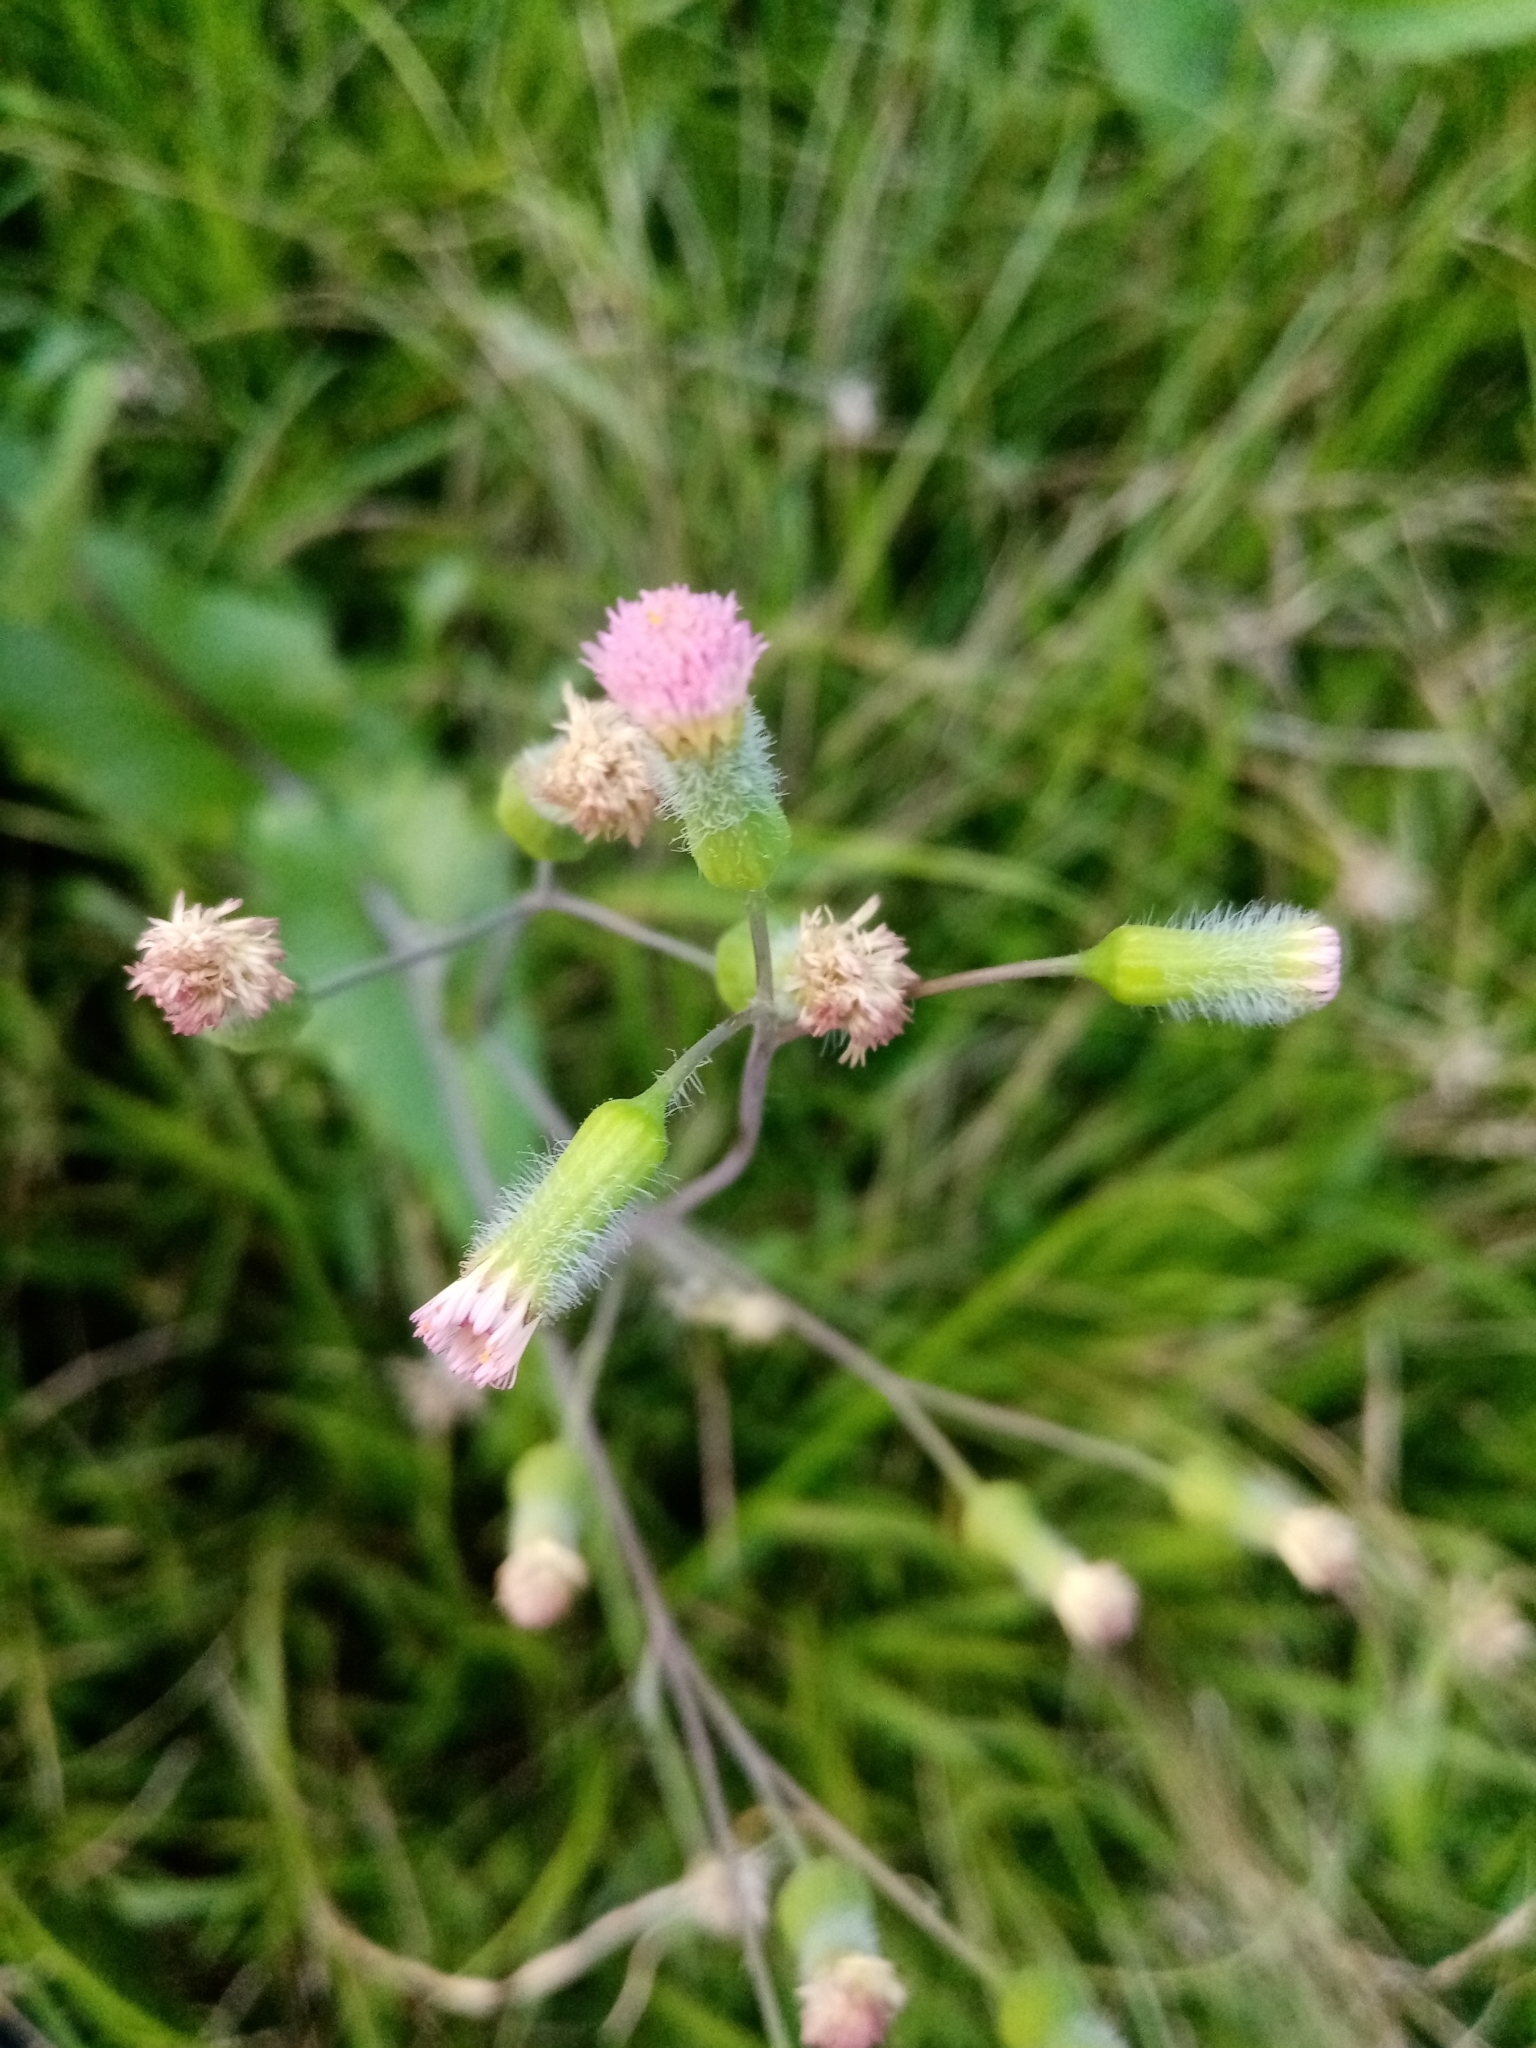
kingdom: Plantae
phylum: Tracheophyta
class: Magnoliopsida
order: Asterales
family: Asteraceae
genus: Emilia
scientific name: Emilia sonchifolia
